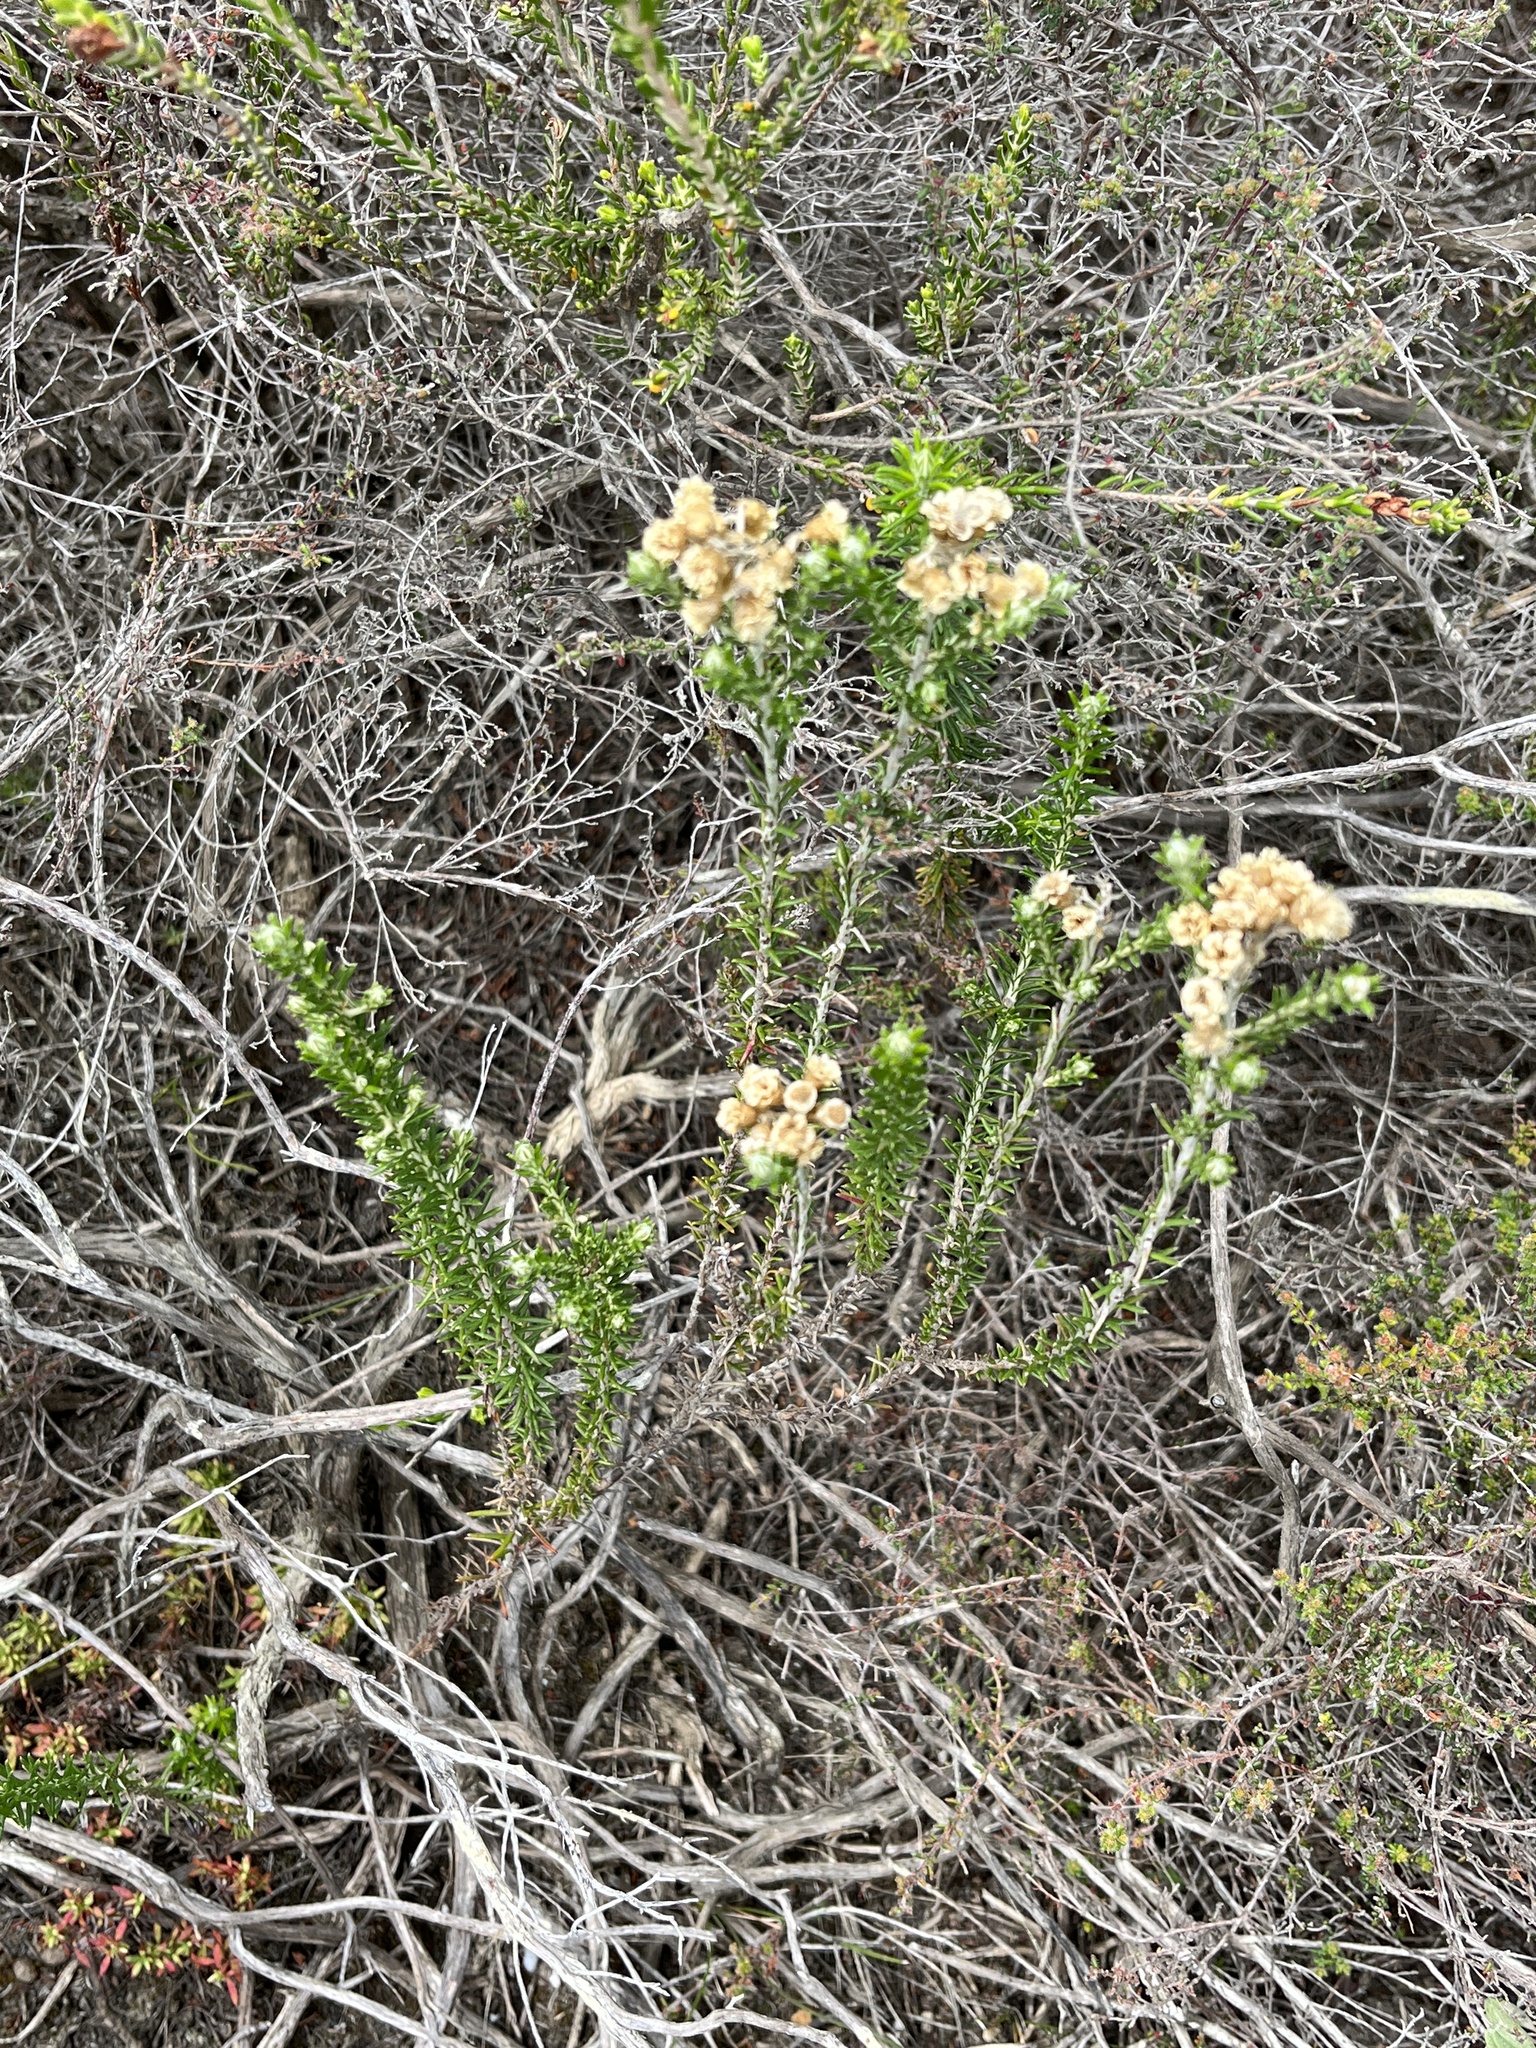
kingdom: Plantae
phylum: Tracheophyta
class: Magnoliopsida
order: Asterales
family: Asteraceae
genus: Helichrysum
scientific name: Helichrysum teretifolium
